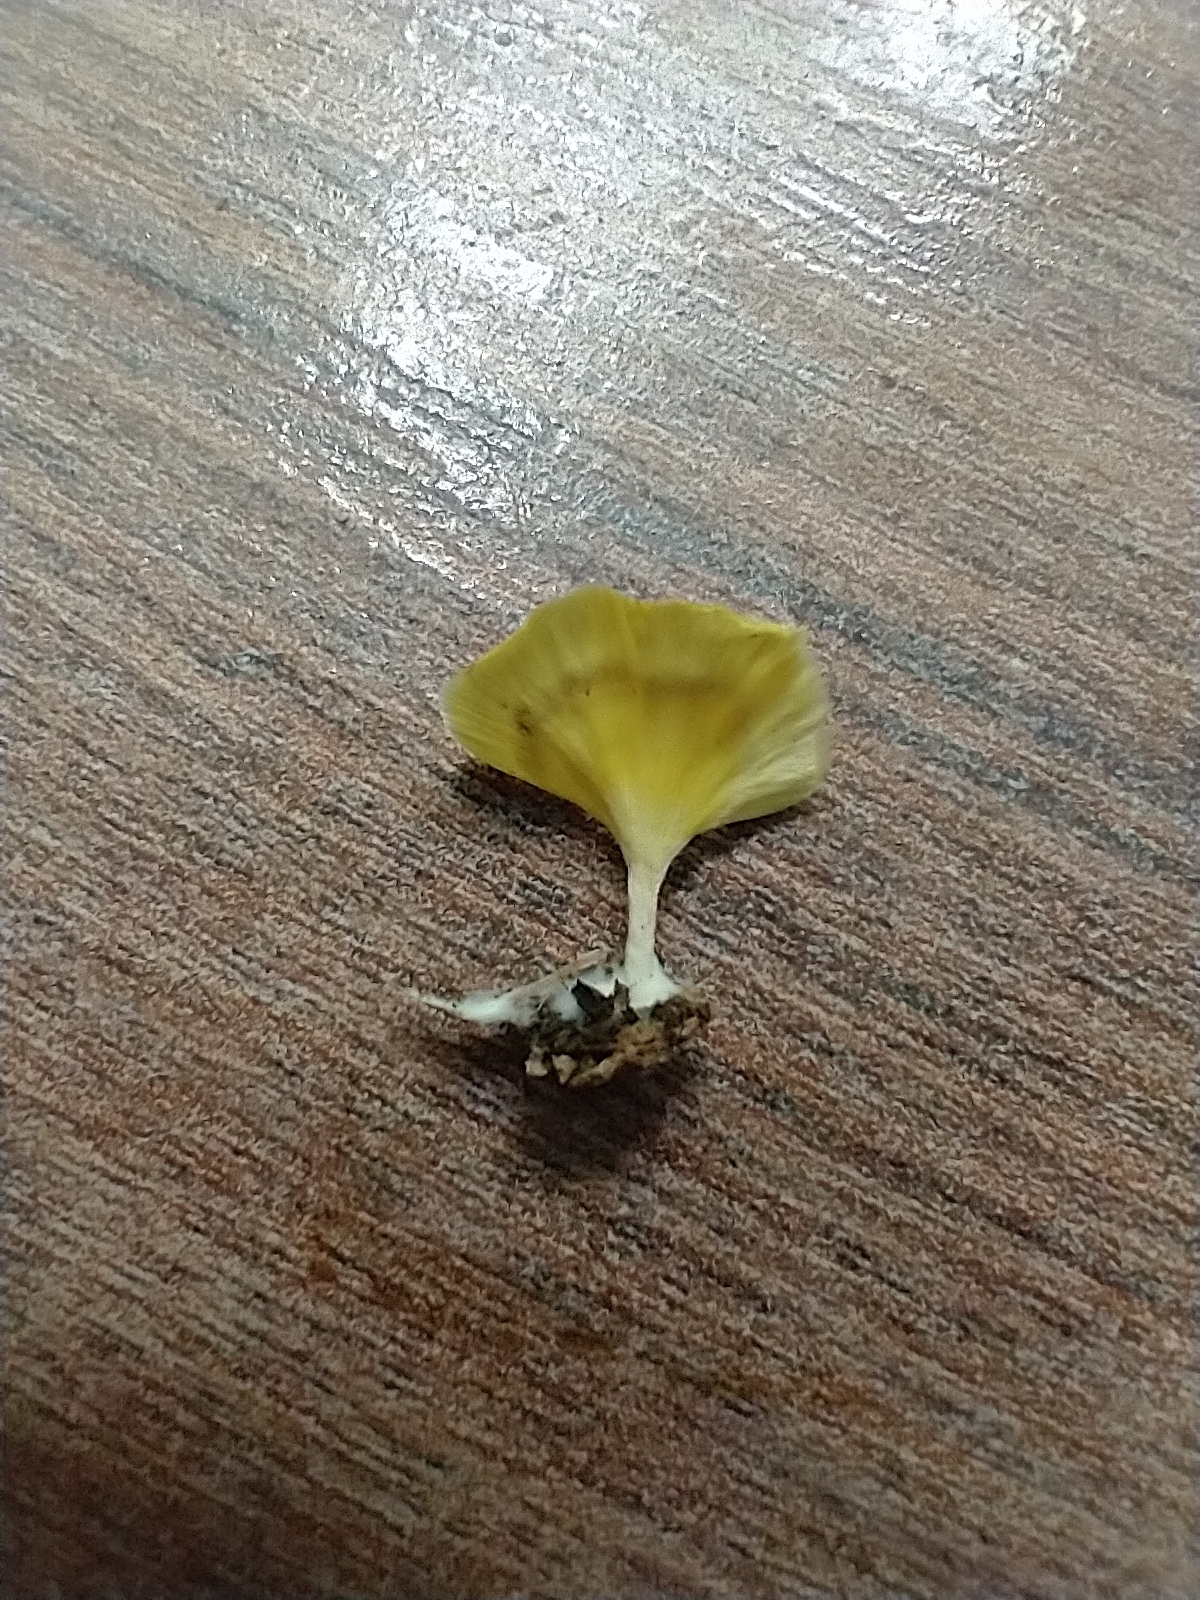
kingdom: Fungi
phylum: Basidiomycota
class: Agaricomycetes
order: Hymenochaetales
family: Rickenellaceae
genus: Cotylidia
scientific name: Cotylidia aurantiaca
